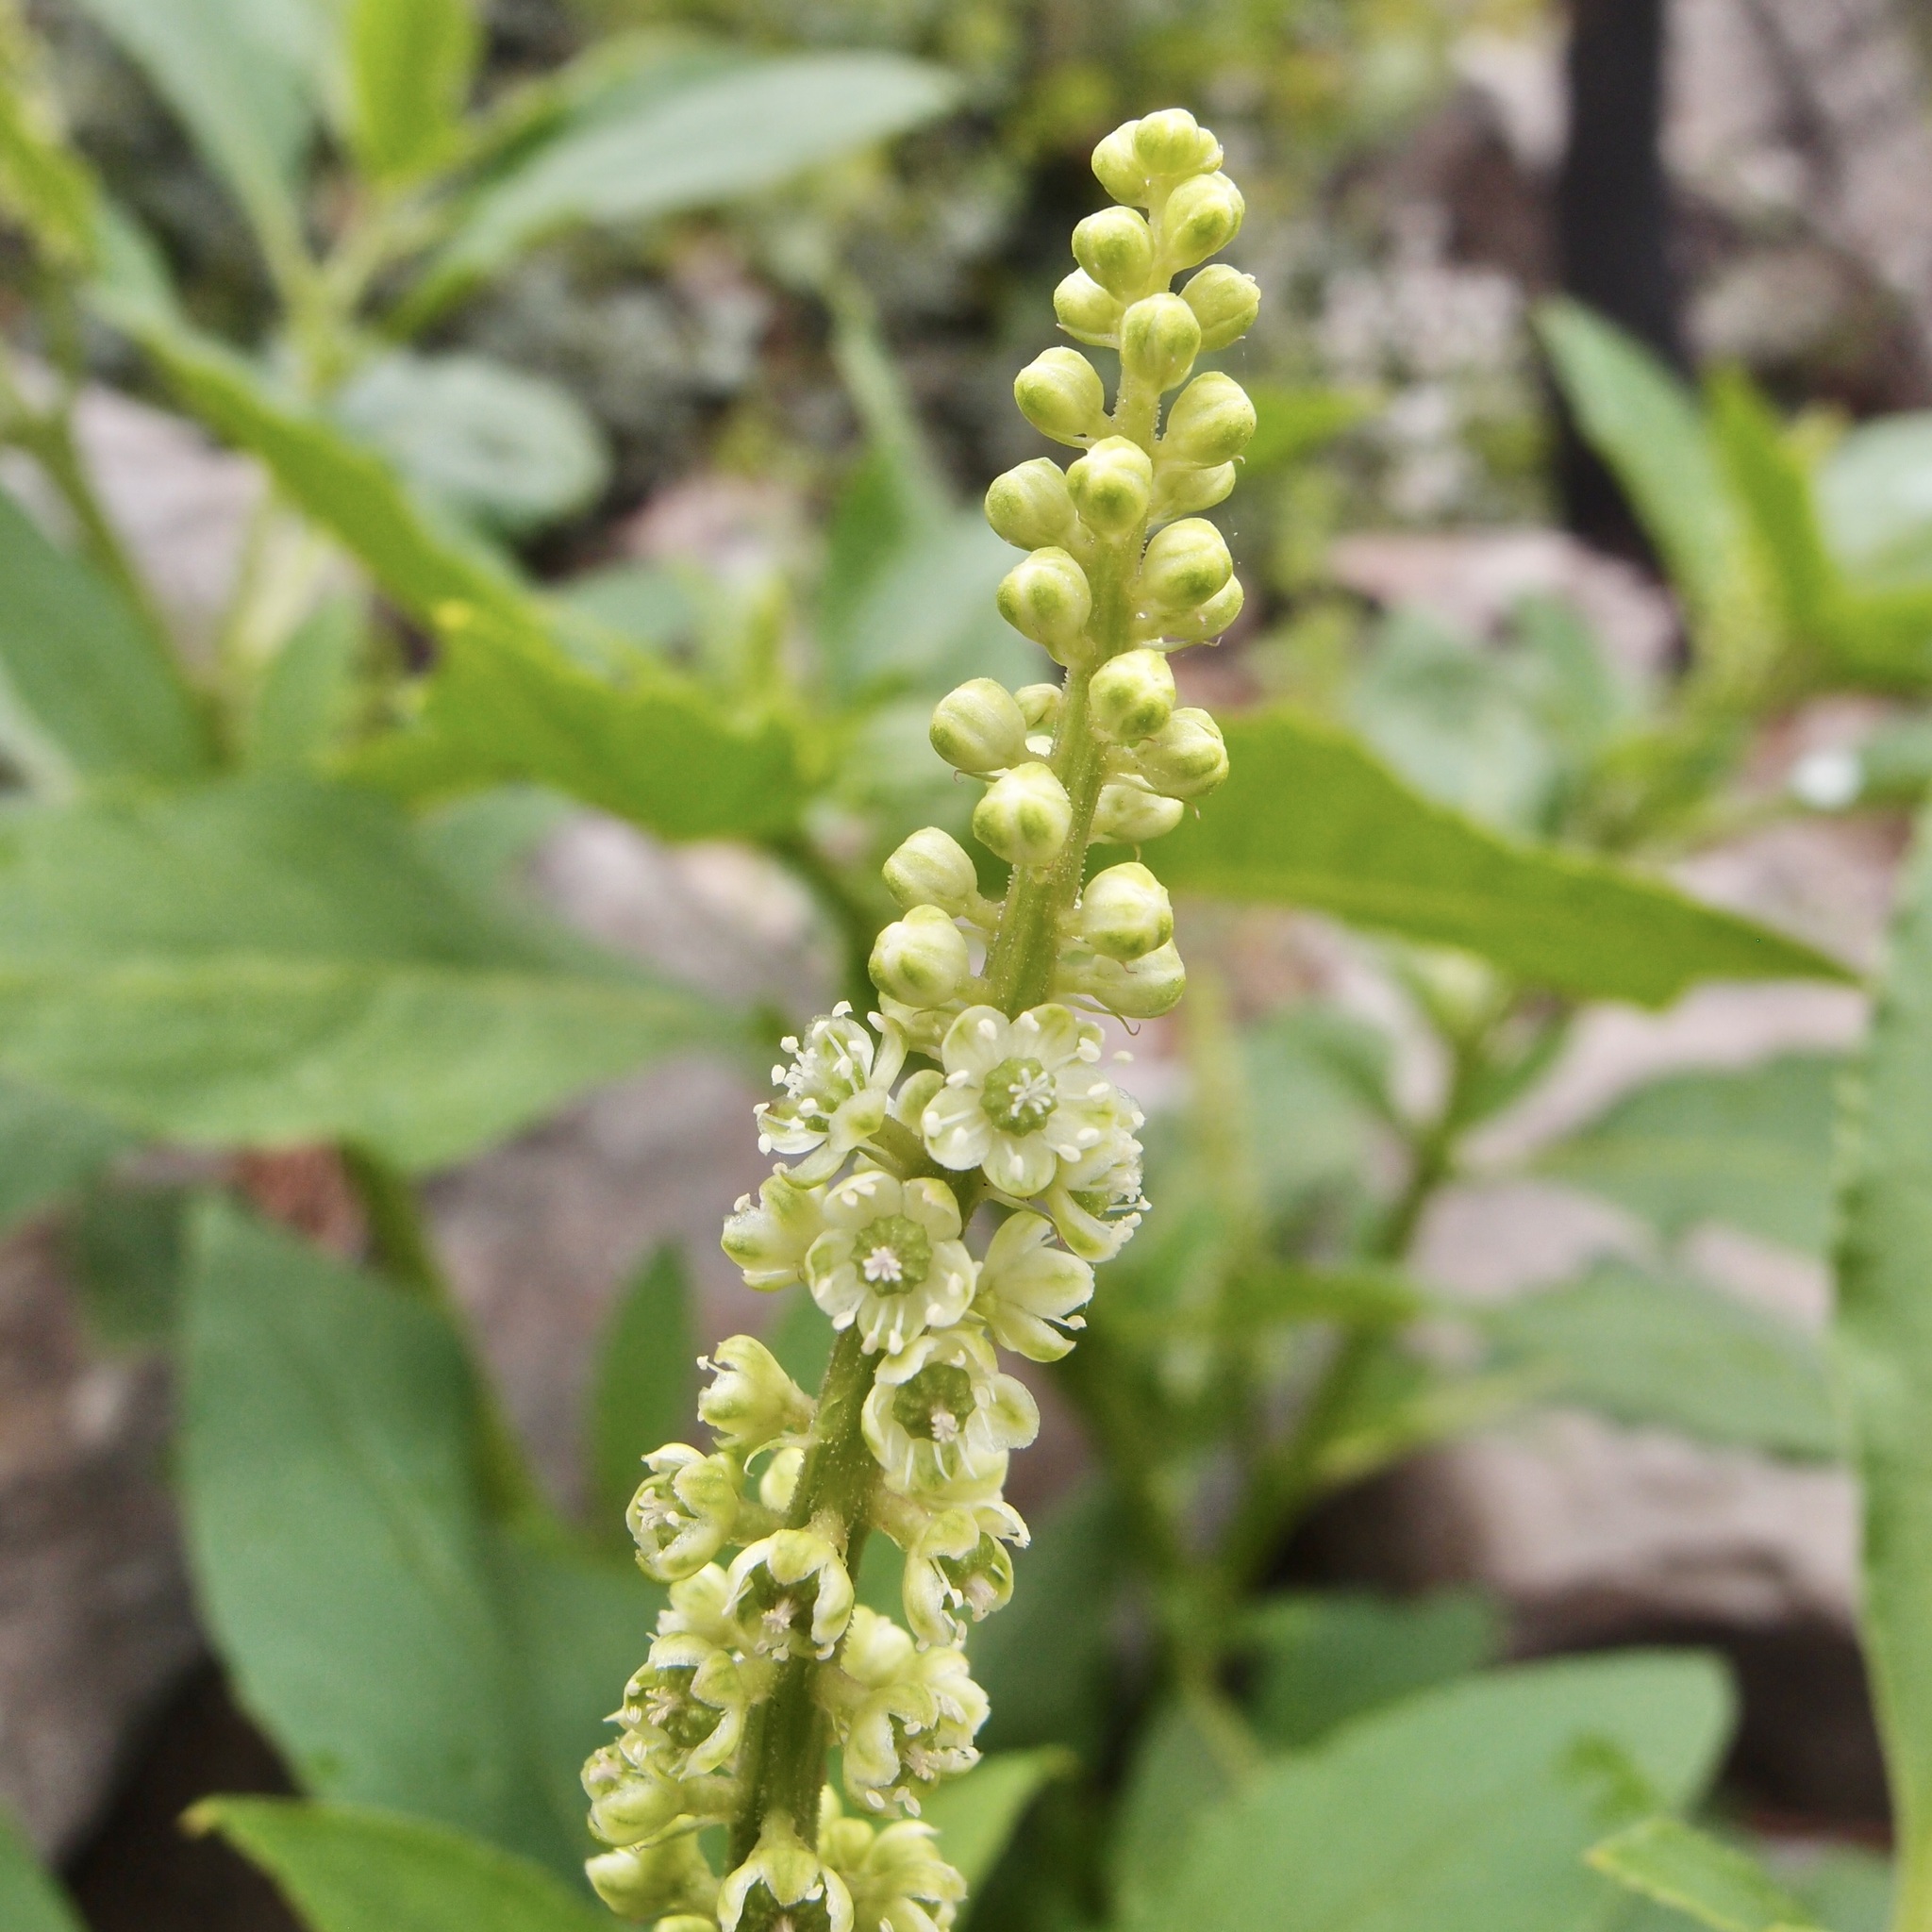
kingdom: Plantae
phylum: Tracheophyta
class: Magnoliopsida
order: Caryophyllales
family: Phytolaccaceae
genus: Phytolacca
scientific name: Phytolacca icosandra
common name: Button pokeweed
